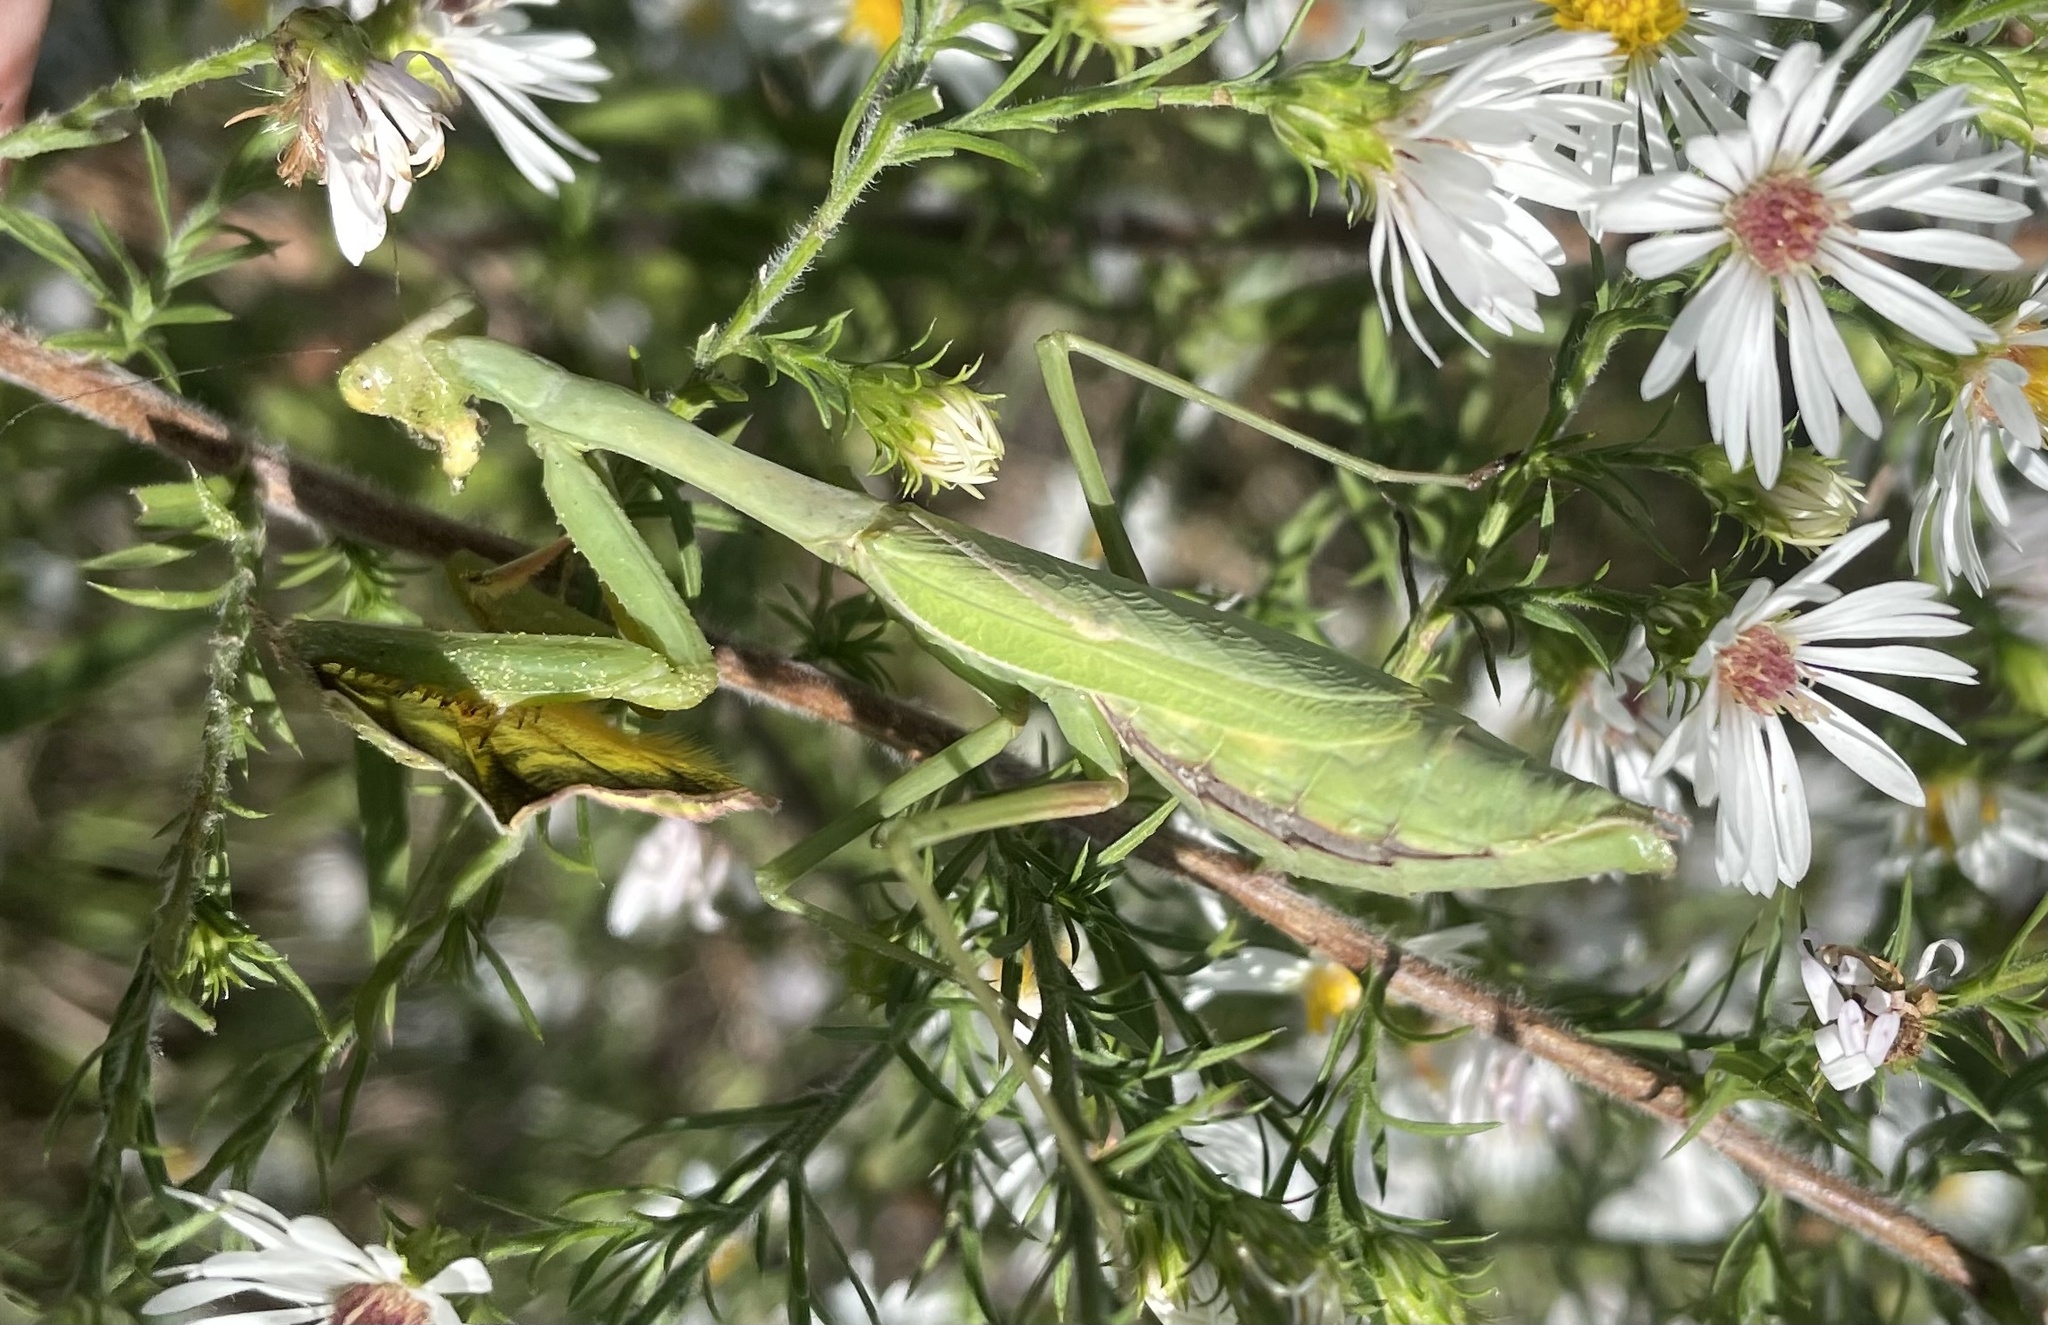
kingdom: Animalia
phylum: Arthropoda
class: Insecta
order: Mantodea
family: Mantidae
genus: Stagmomantis
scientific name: Stagmomantis carolina
